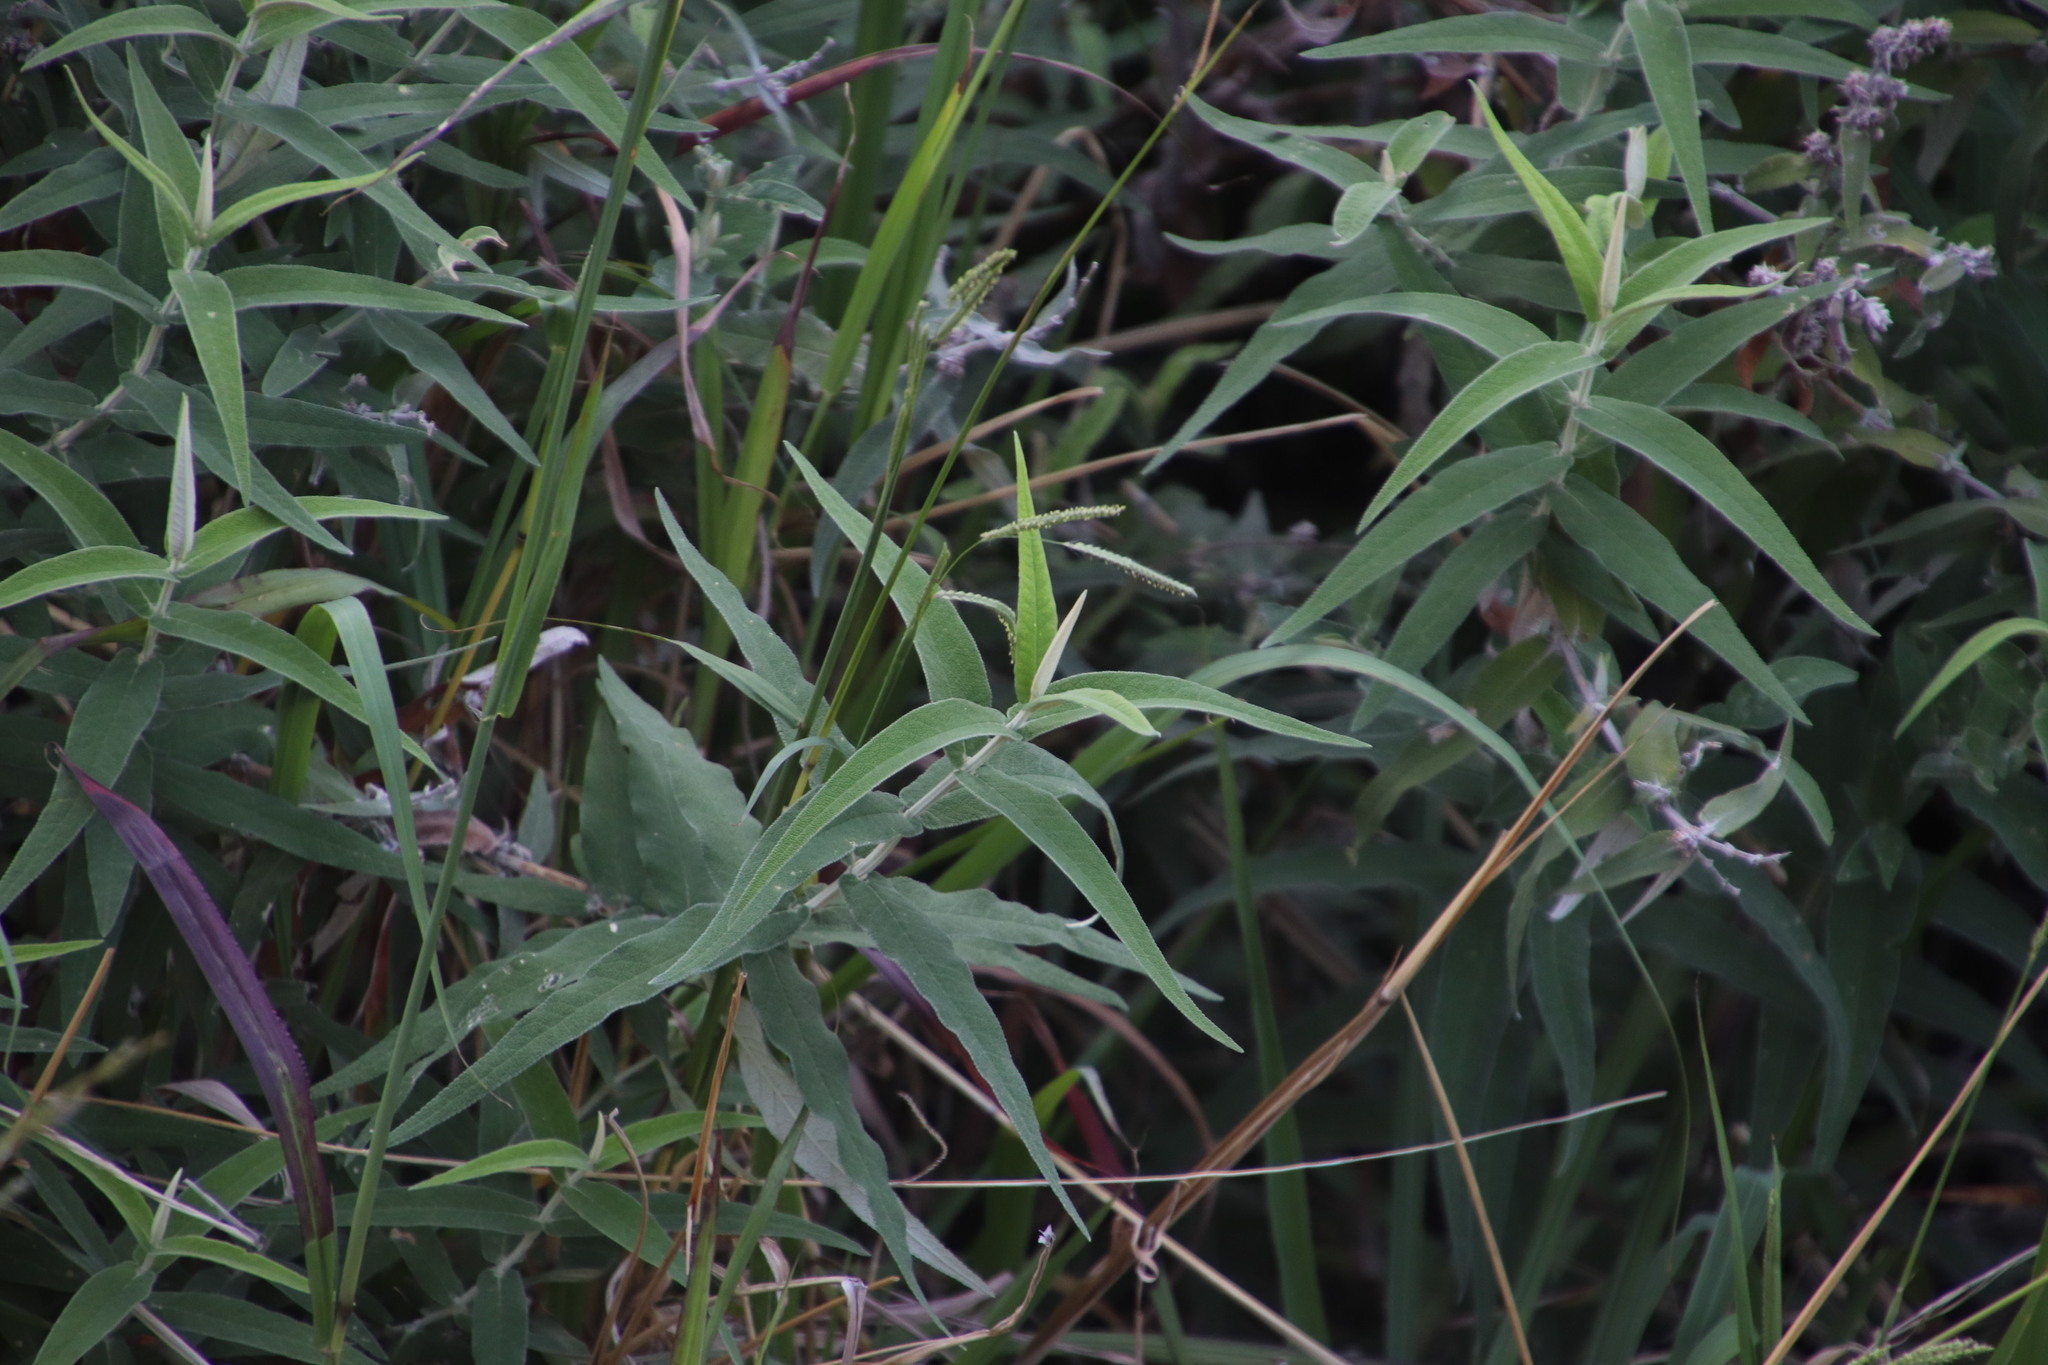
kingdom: Plantae
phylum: Tracheophyta
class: Magnoliopsida
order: Lamiales
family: Scrophulariaceae
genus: Buddleja
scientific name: Buddleja salviifolia
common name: Sagewood
